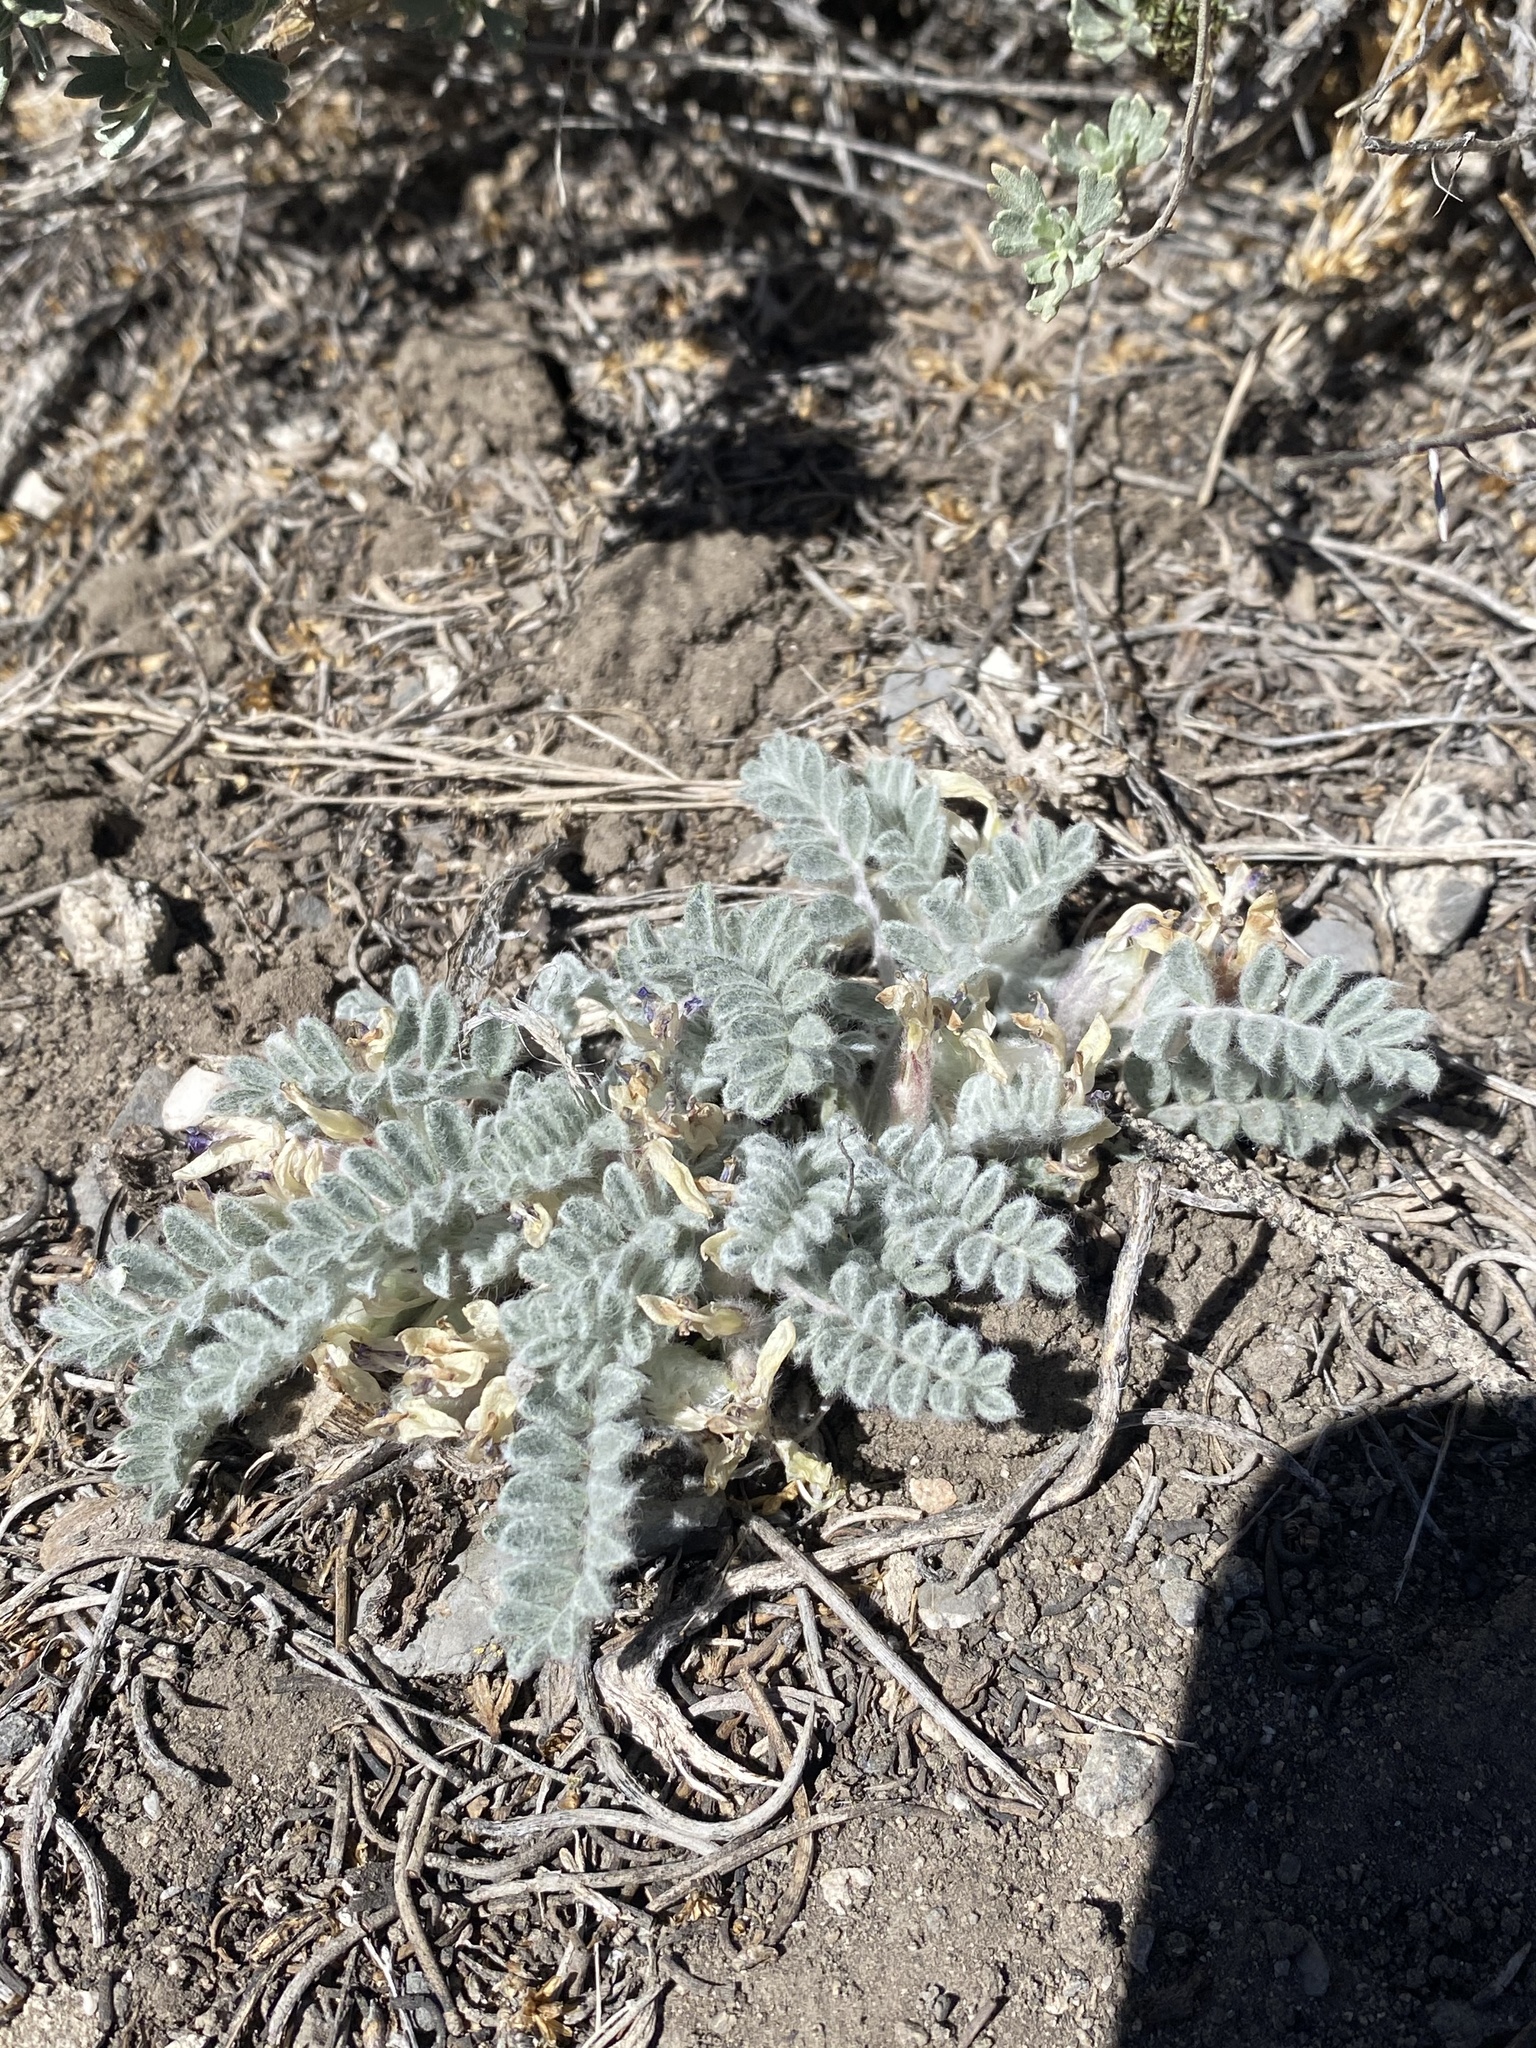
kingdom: Plantae
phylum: Tracheophyta
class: Magnoliopsida
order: Fabales
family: Fabaceae
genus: Astragalus
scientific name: Astragalus purshii
